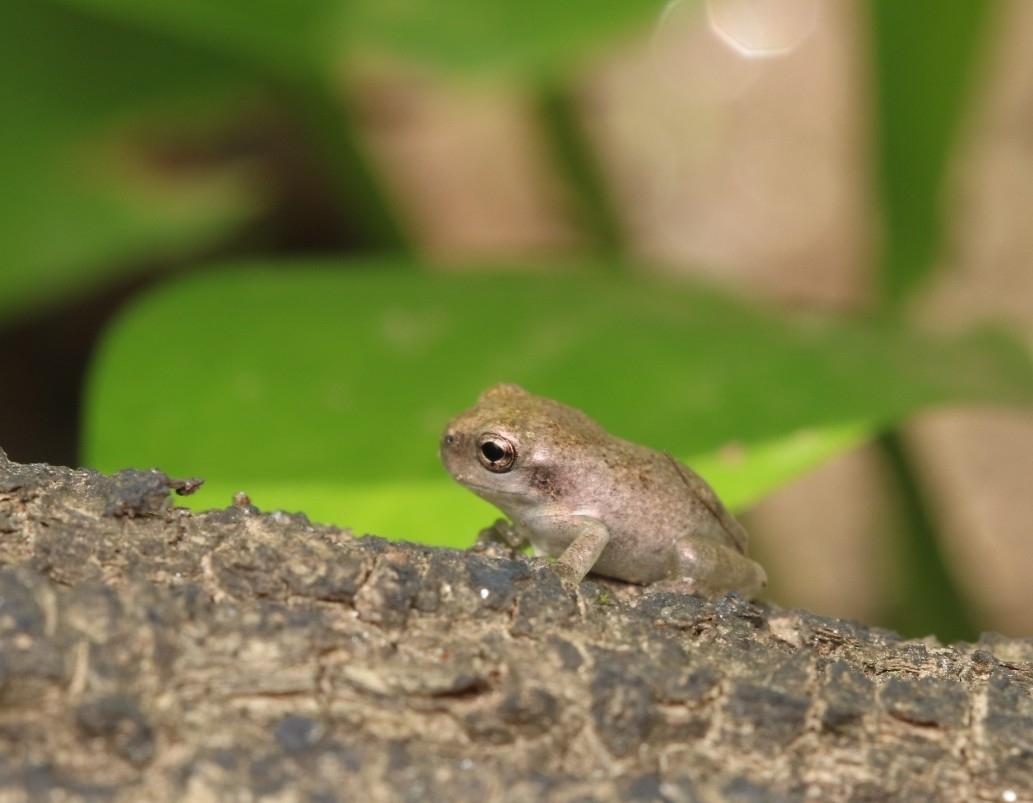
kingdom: Animalia
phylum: Chordata
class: Amphibia
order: Anura
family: Hylidae
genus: Hyla
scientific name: Hyla
